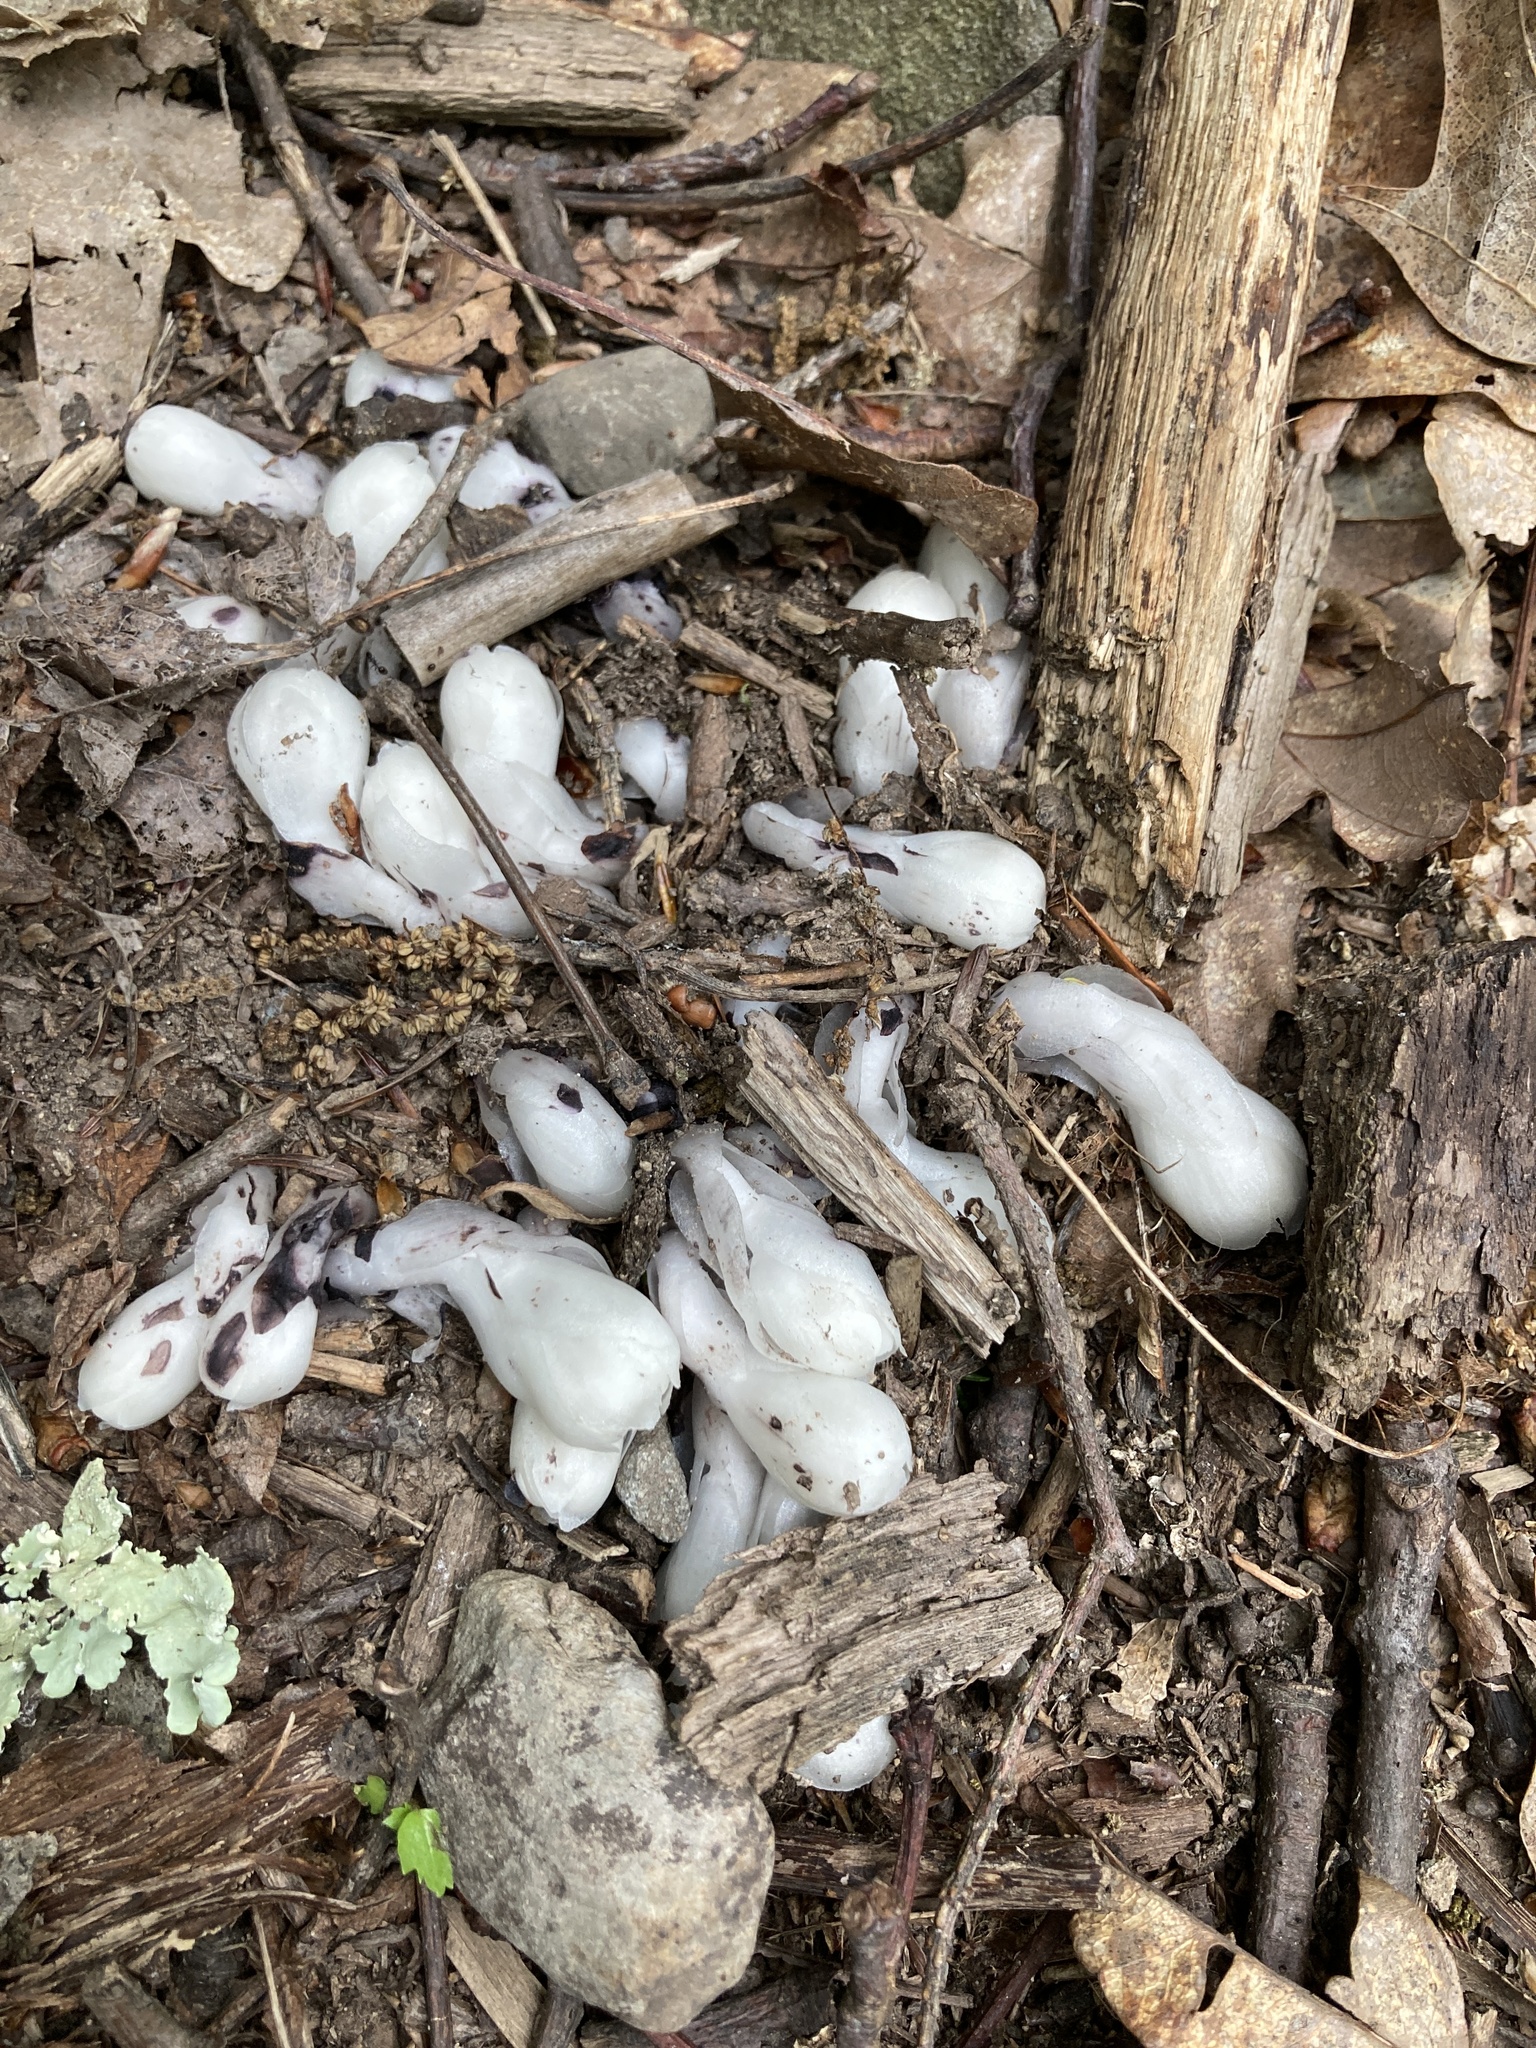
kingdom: Plantae
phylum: Tracheophyta
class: Magnoliopsida
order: Ericales
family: Ericaceae
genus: Monotropa
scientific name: Monotropa uniflora
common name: Convulsion root
